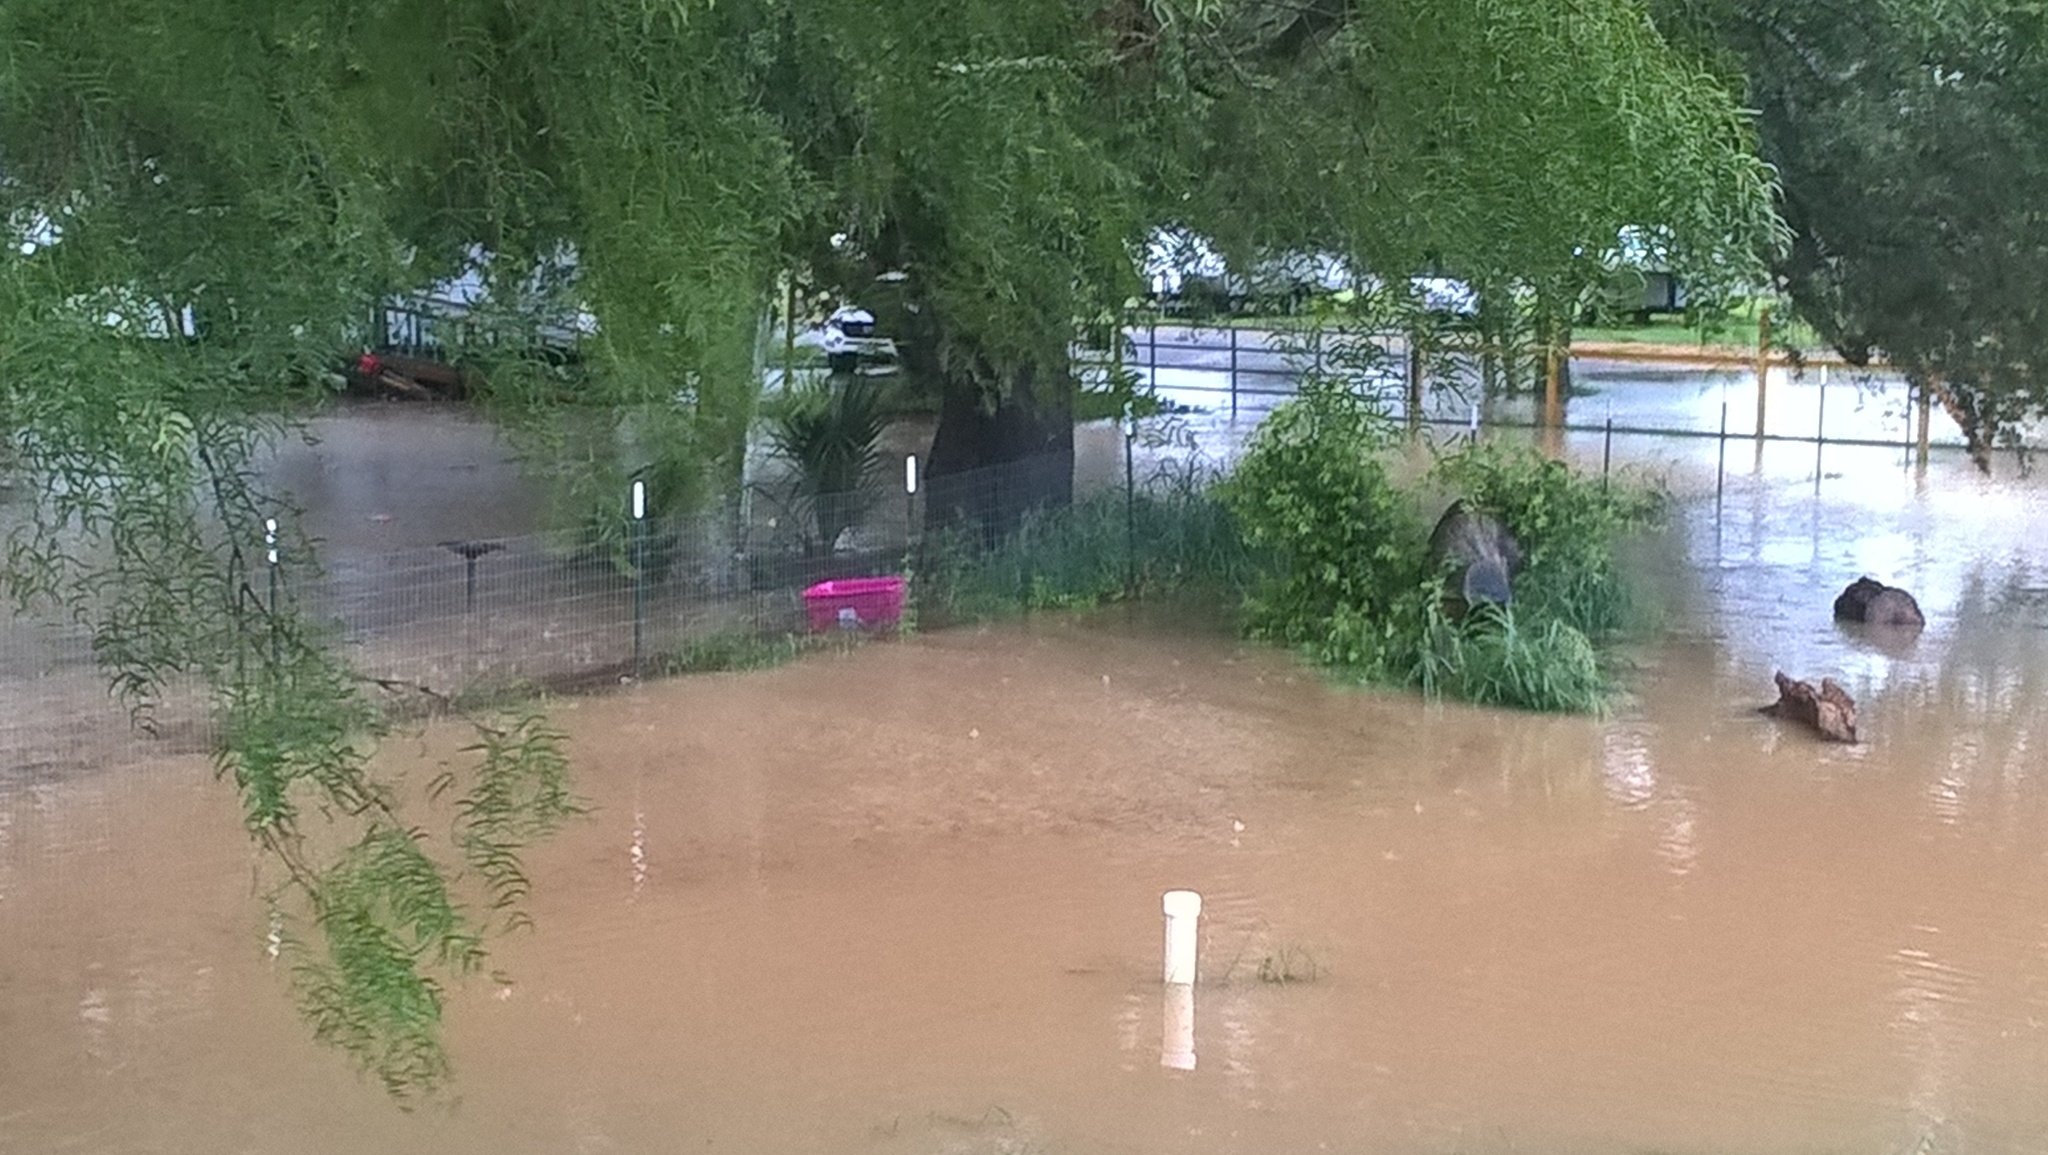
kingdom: Animalia
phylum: Chordata
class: Amphibia
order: Anura
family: Bufonidae
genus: Incilius
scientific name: Incilius nebulifer
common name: Gulf coast toad
